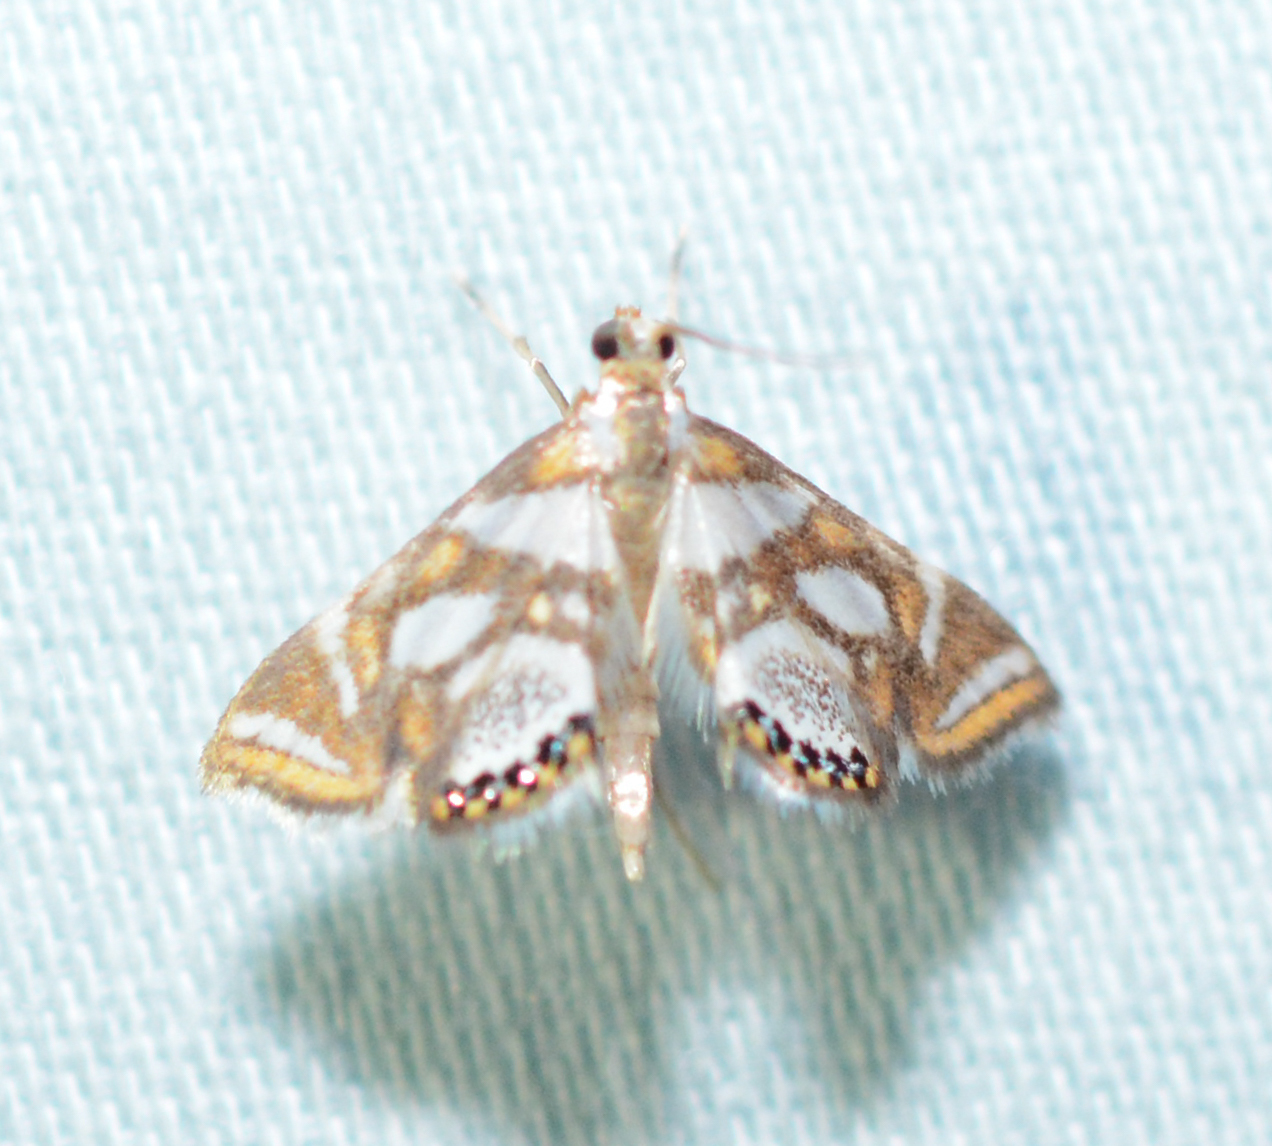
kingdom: Animalia
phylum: Arthropoda
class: Insecta
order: Lepidoptera
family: Crambidae
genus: Chrysendeton
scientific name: Chrysendeton medicinalis
